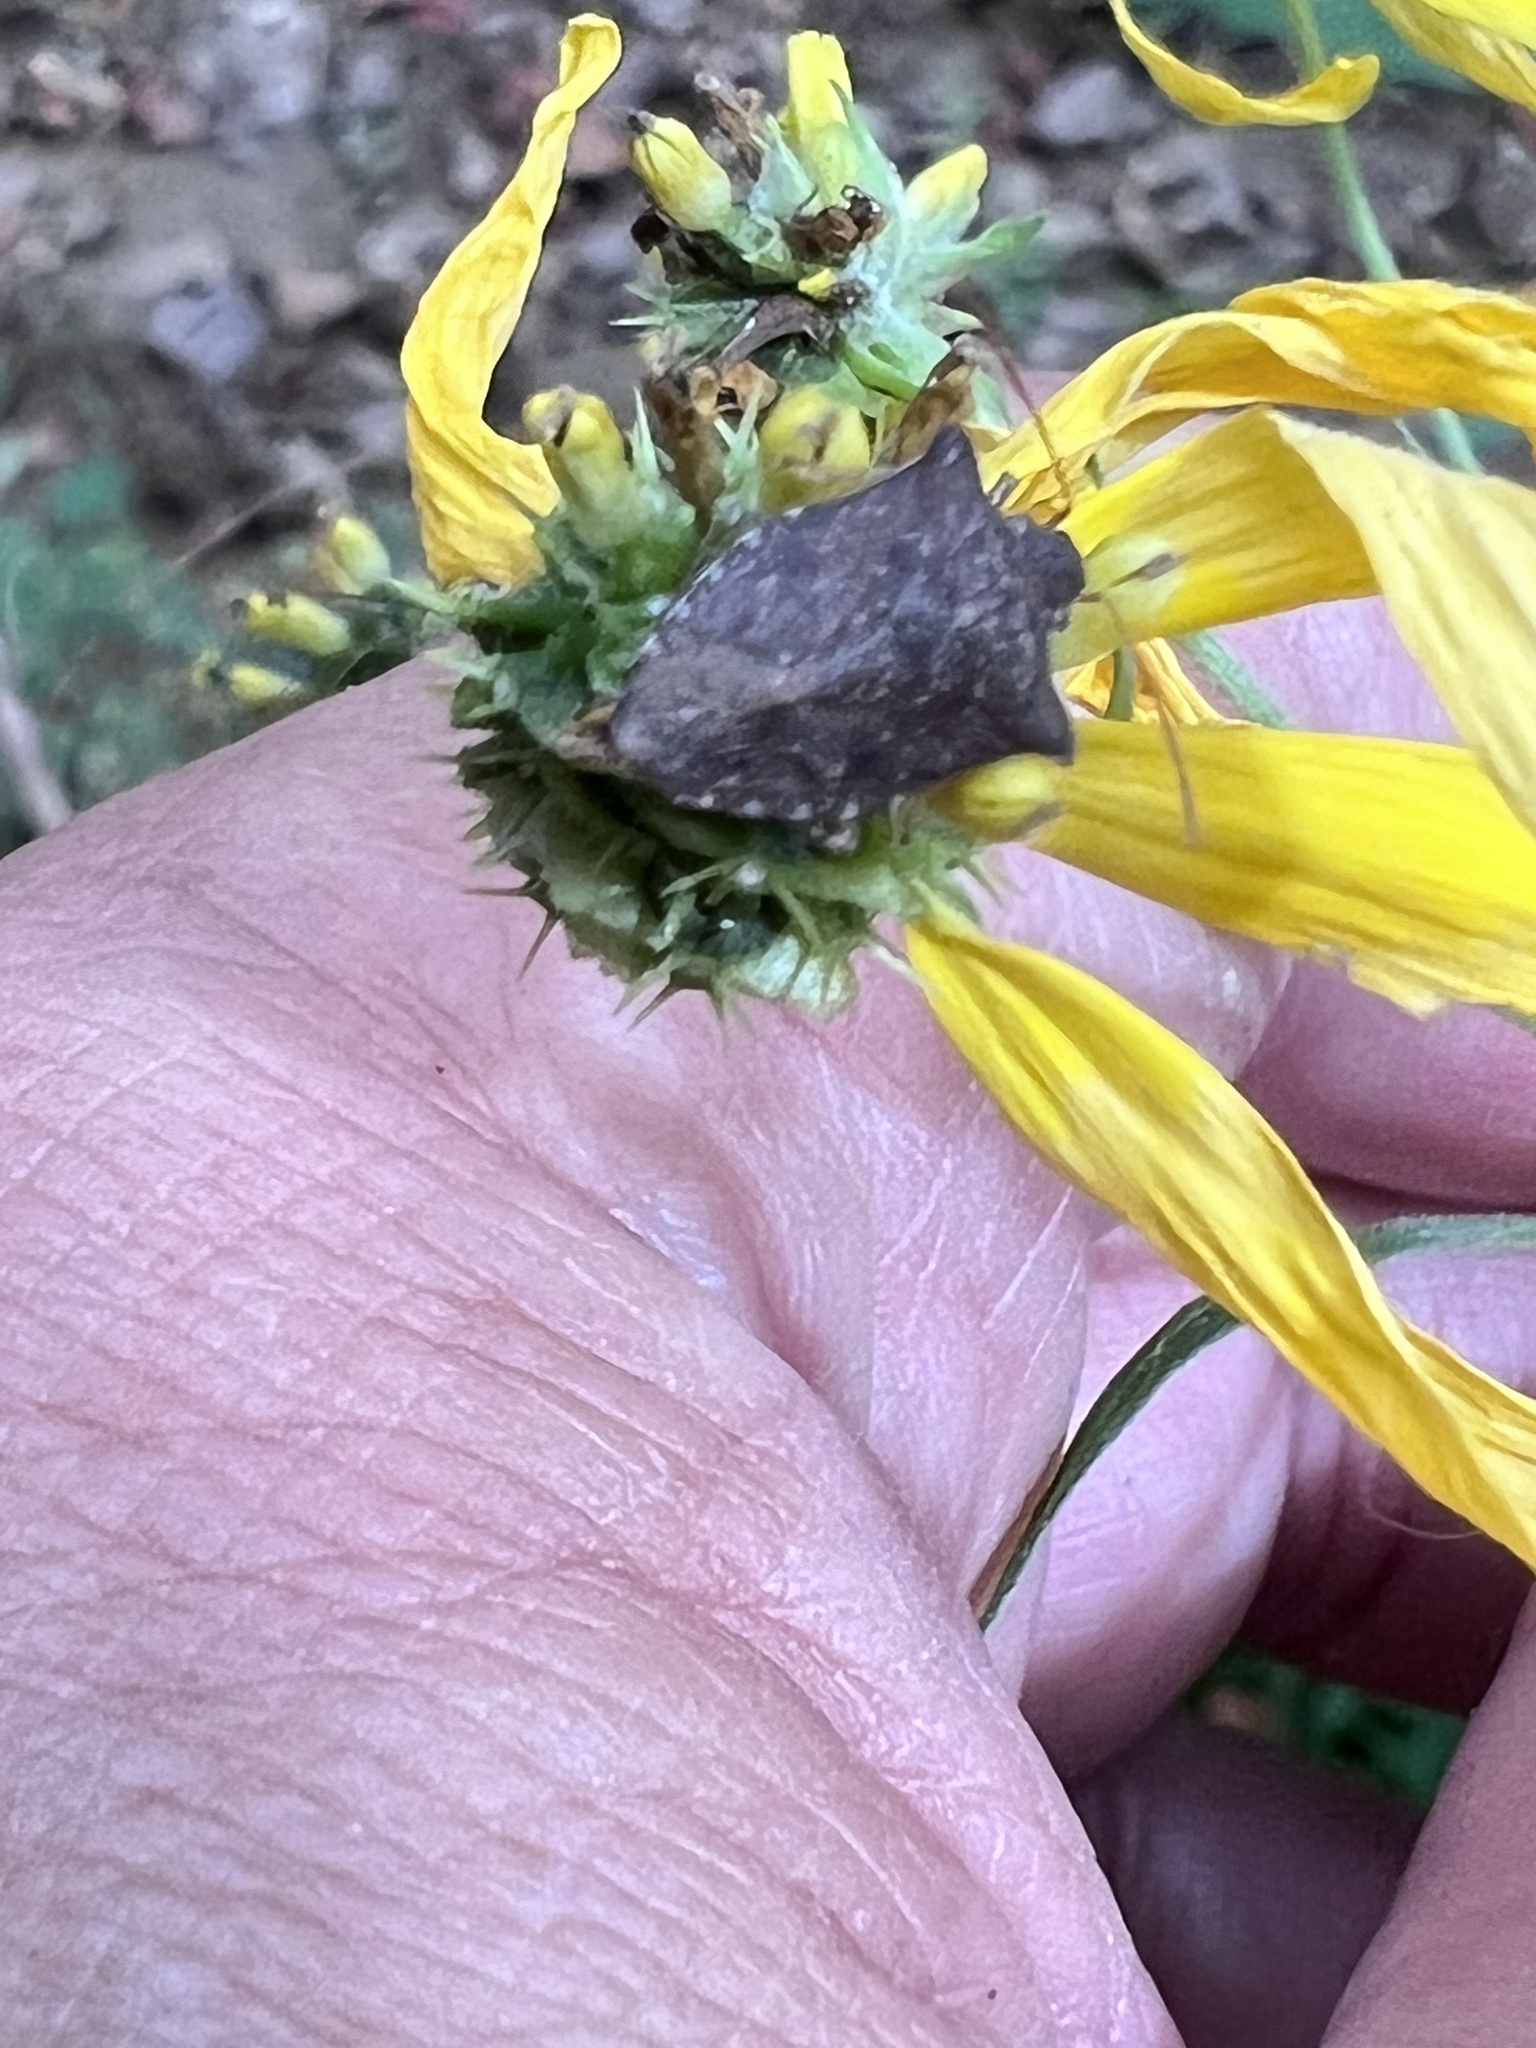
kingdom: Animalia
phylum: Arthropoda
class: Insecta
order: Hemiptera
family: Pentatomidae
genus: Euschistus
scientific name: Euschistus tristigmus
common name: Dusky stink bug
